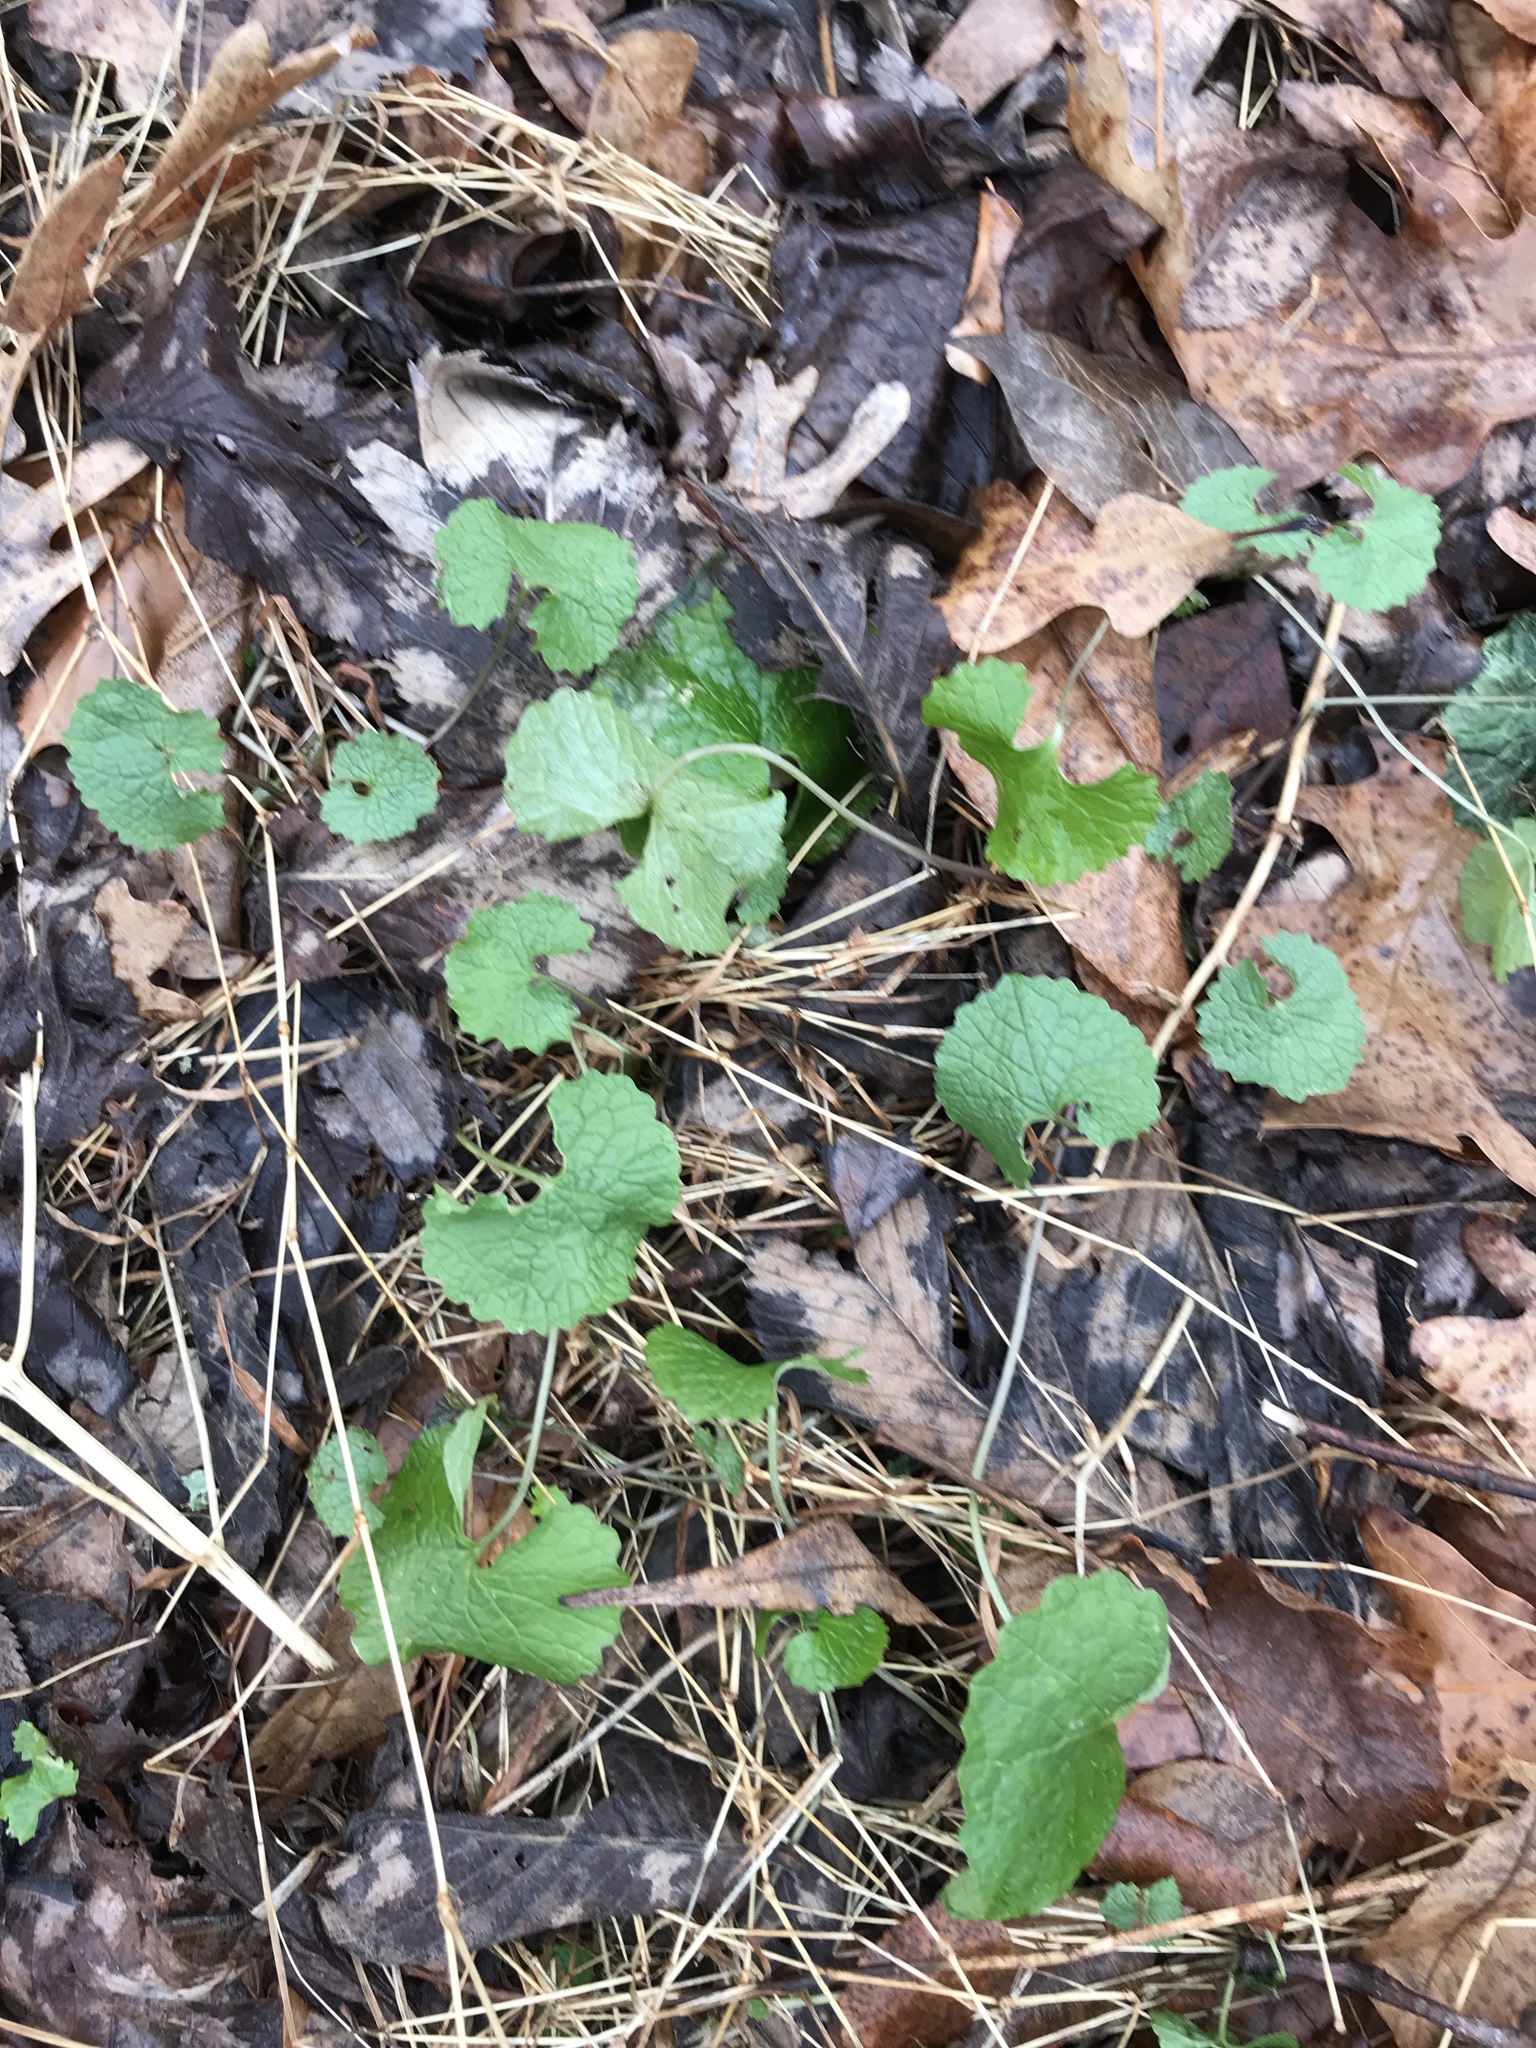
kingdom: Plantae
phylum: Tracheophyta
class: Magnoliopsida
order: Brassicales
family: Brassicaceae
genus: Alliaria
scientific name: Alliaria petiolata
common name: Garlic mustard
